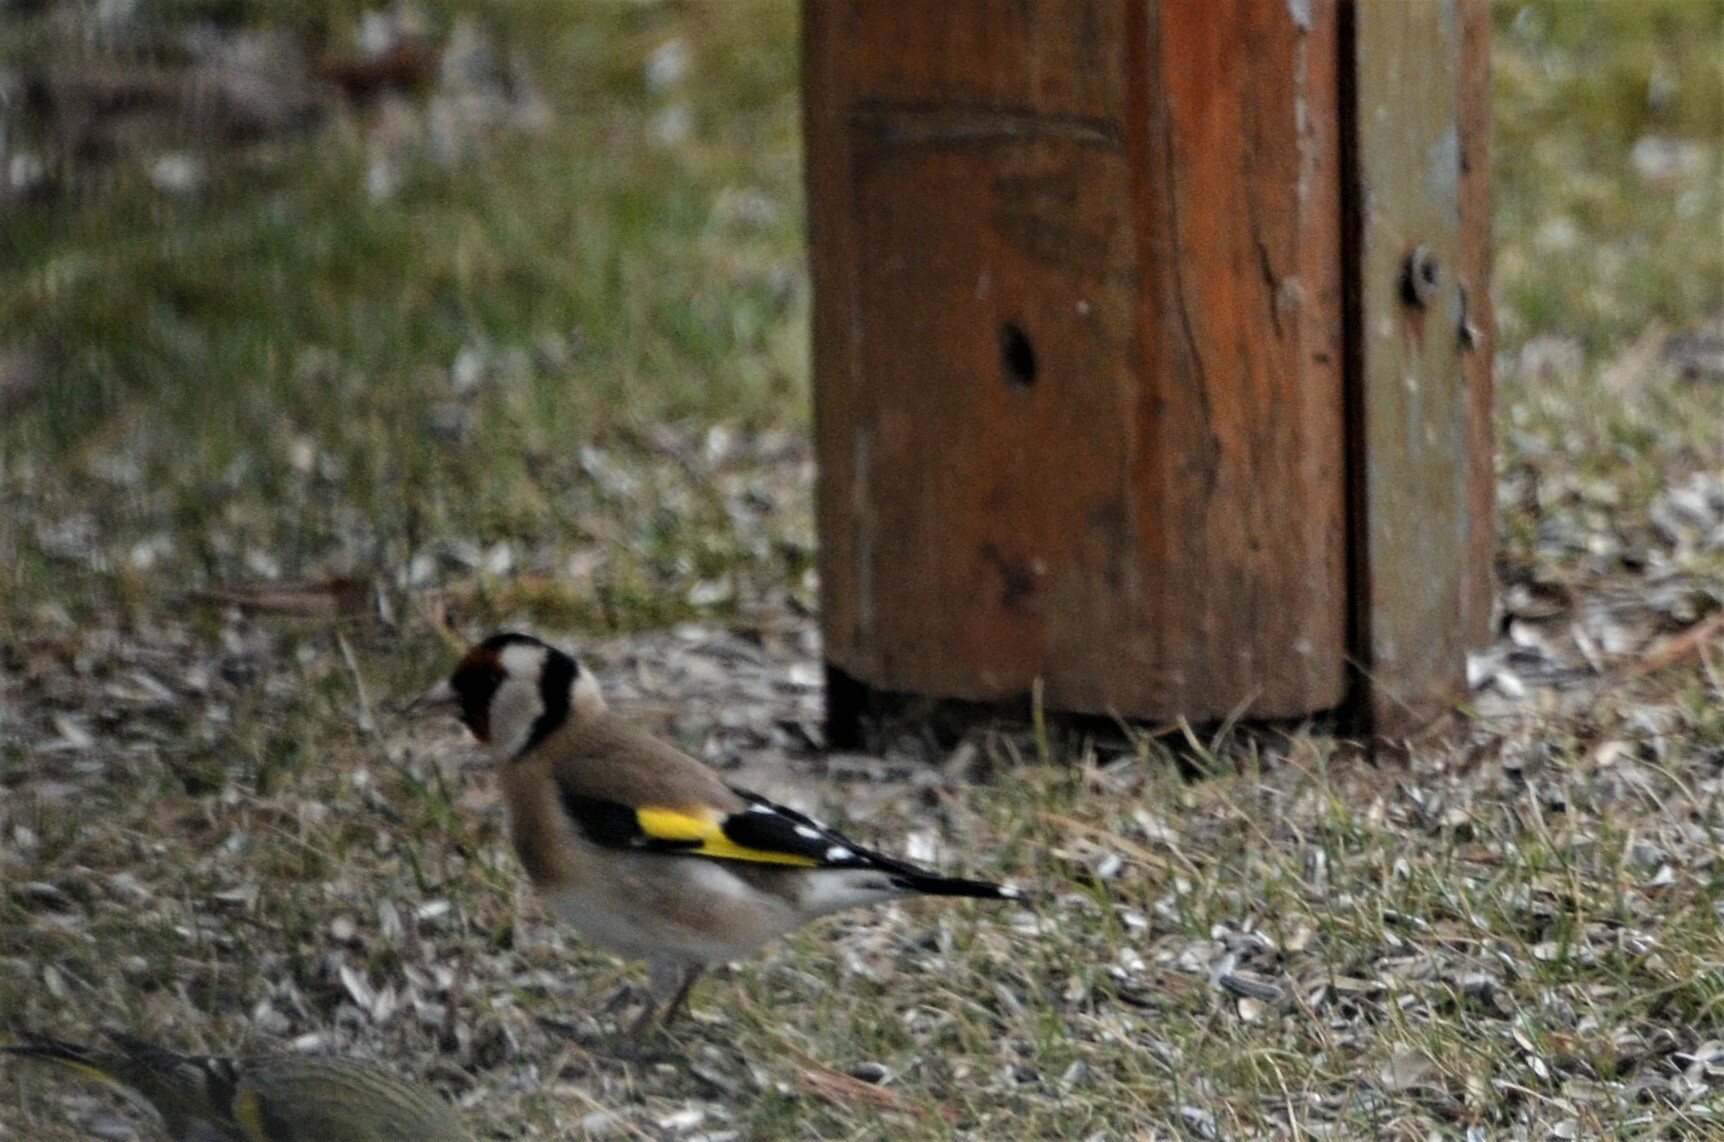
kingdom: Animalia
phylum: Chordata
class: Aves
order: Passeriformes
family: Fringillidae
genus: Carduelis
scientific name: Carduelis carduelis
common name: European goldfinch
